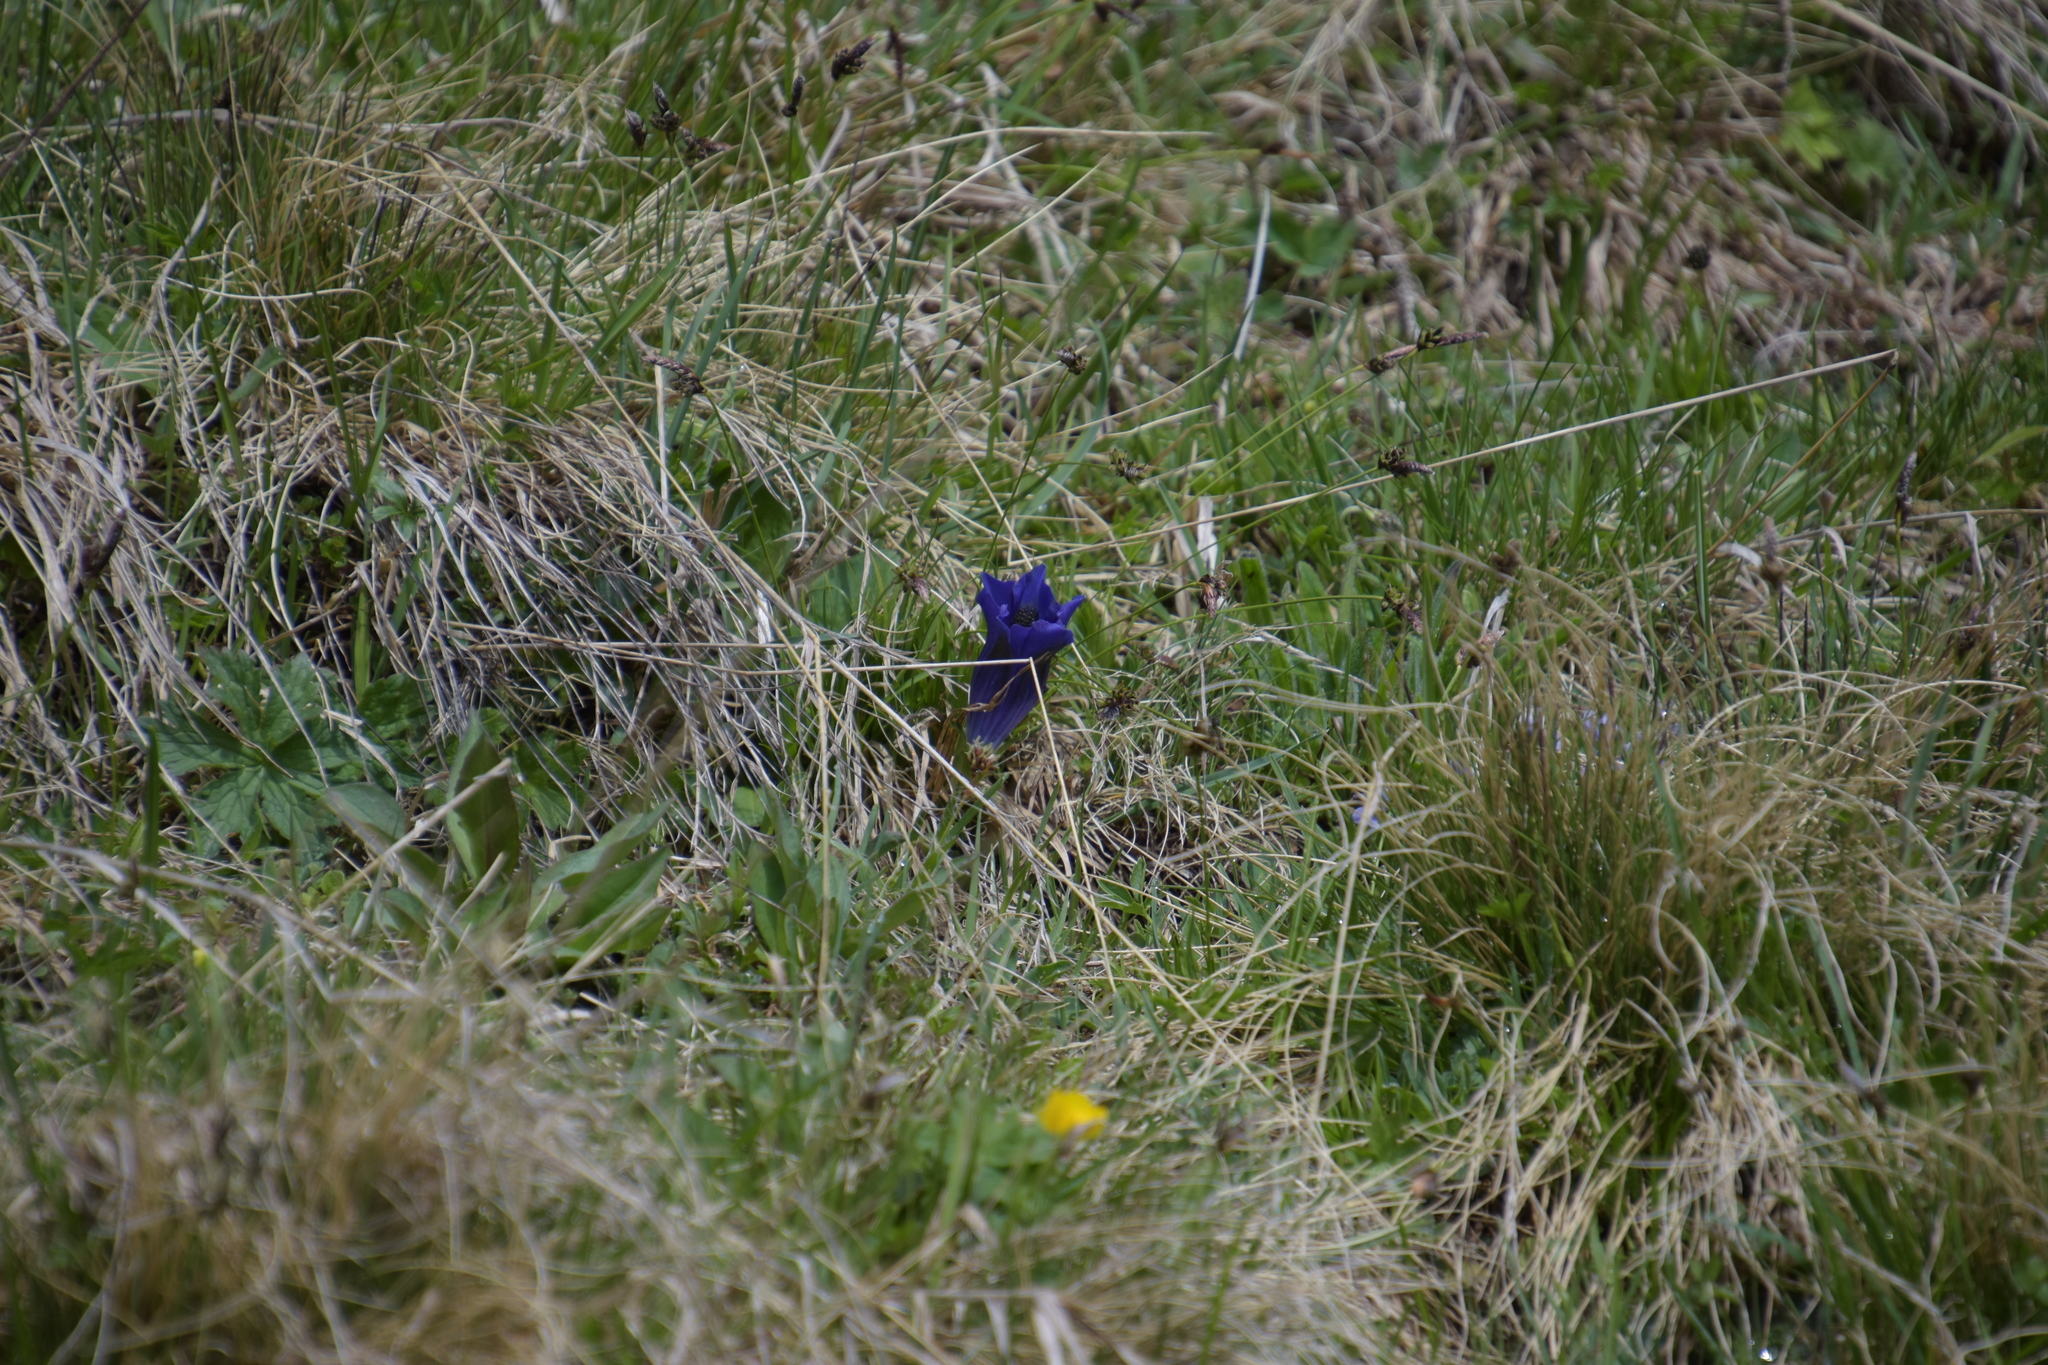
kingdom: Plantae
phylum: Tracheophyta
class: Magnoliopsida
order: Gentianales
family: Gentianaceae
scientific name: Gentianaceae
